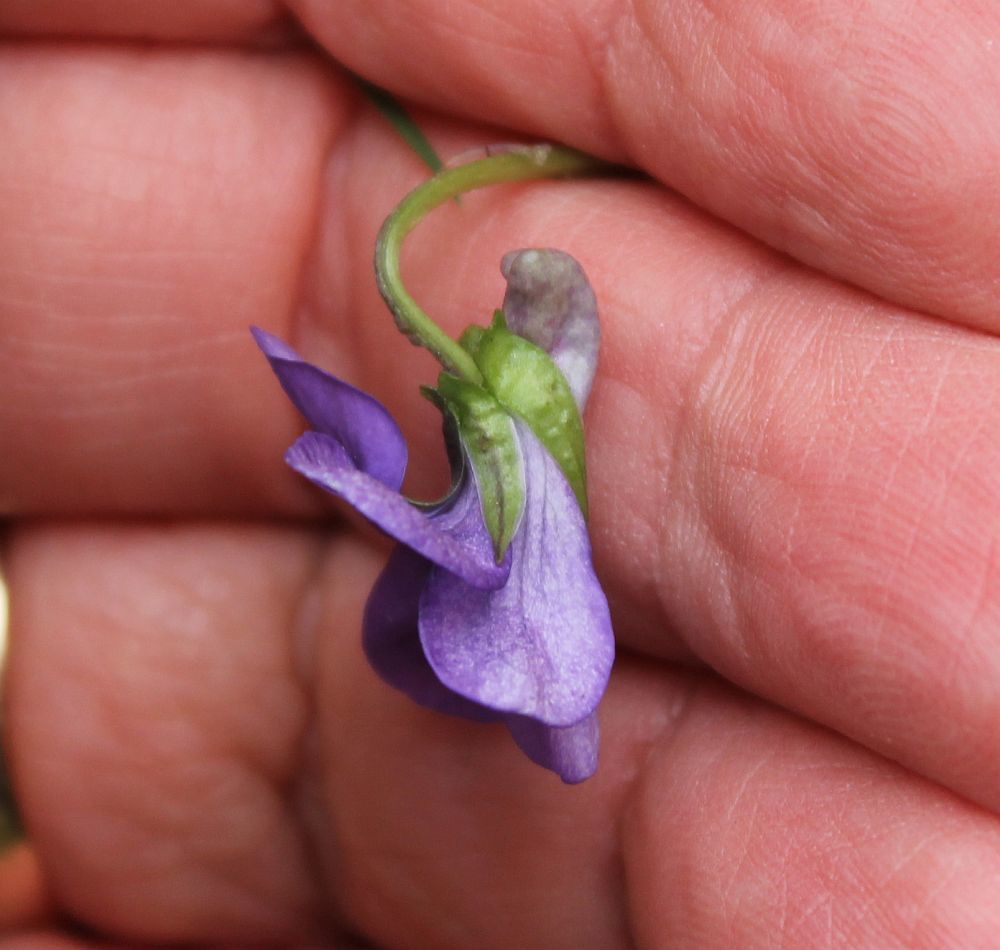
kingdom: Plantae
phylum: Tracheophyta
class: Magnoliopsida
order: Malpighiales
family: Violaceae
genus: Viola
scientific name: Viola riviniana
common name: Common dog-violet
